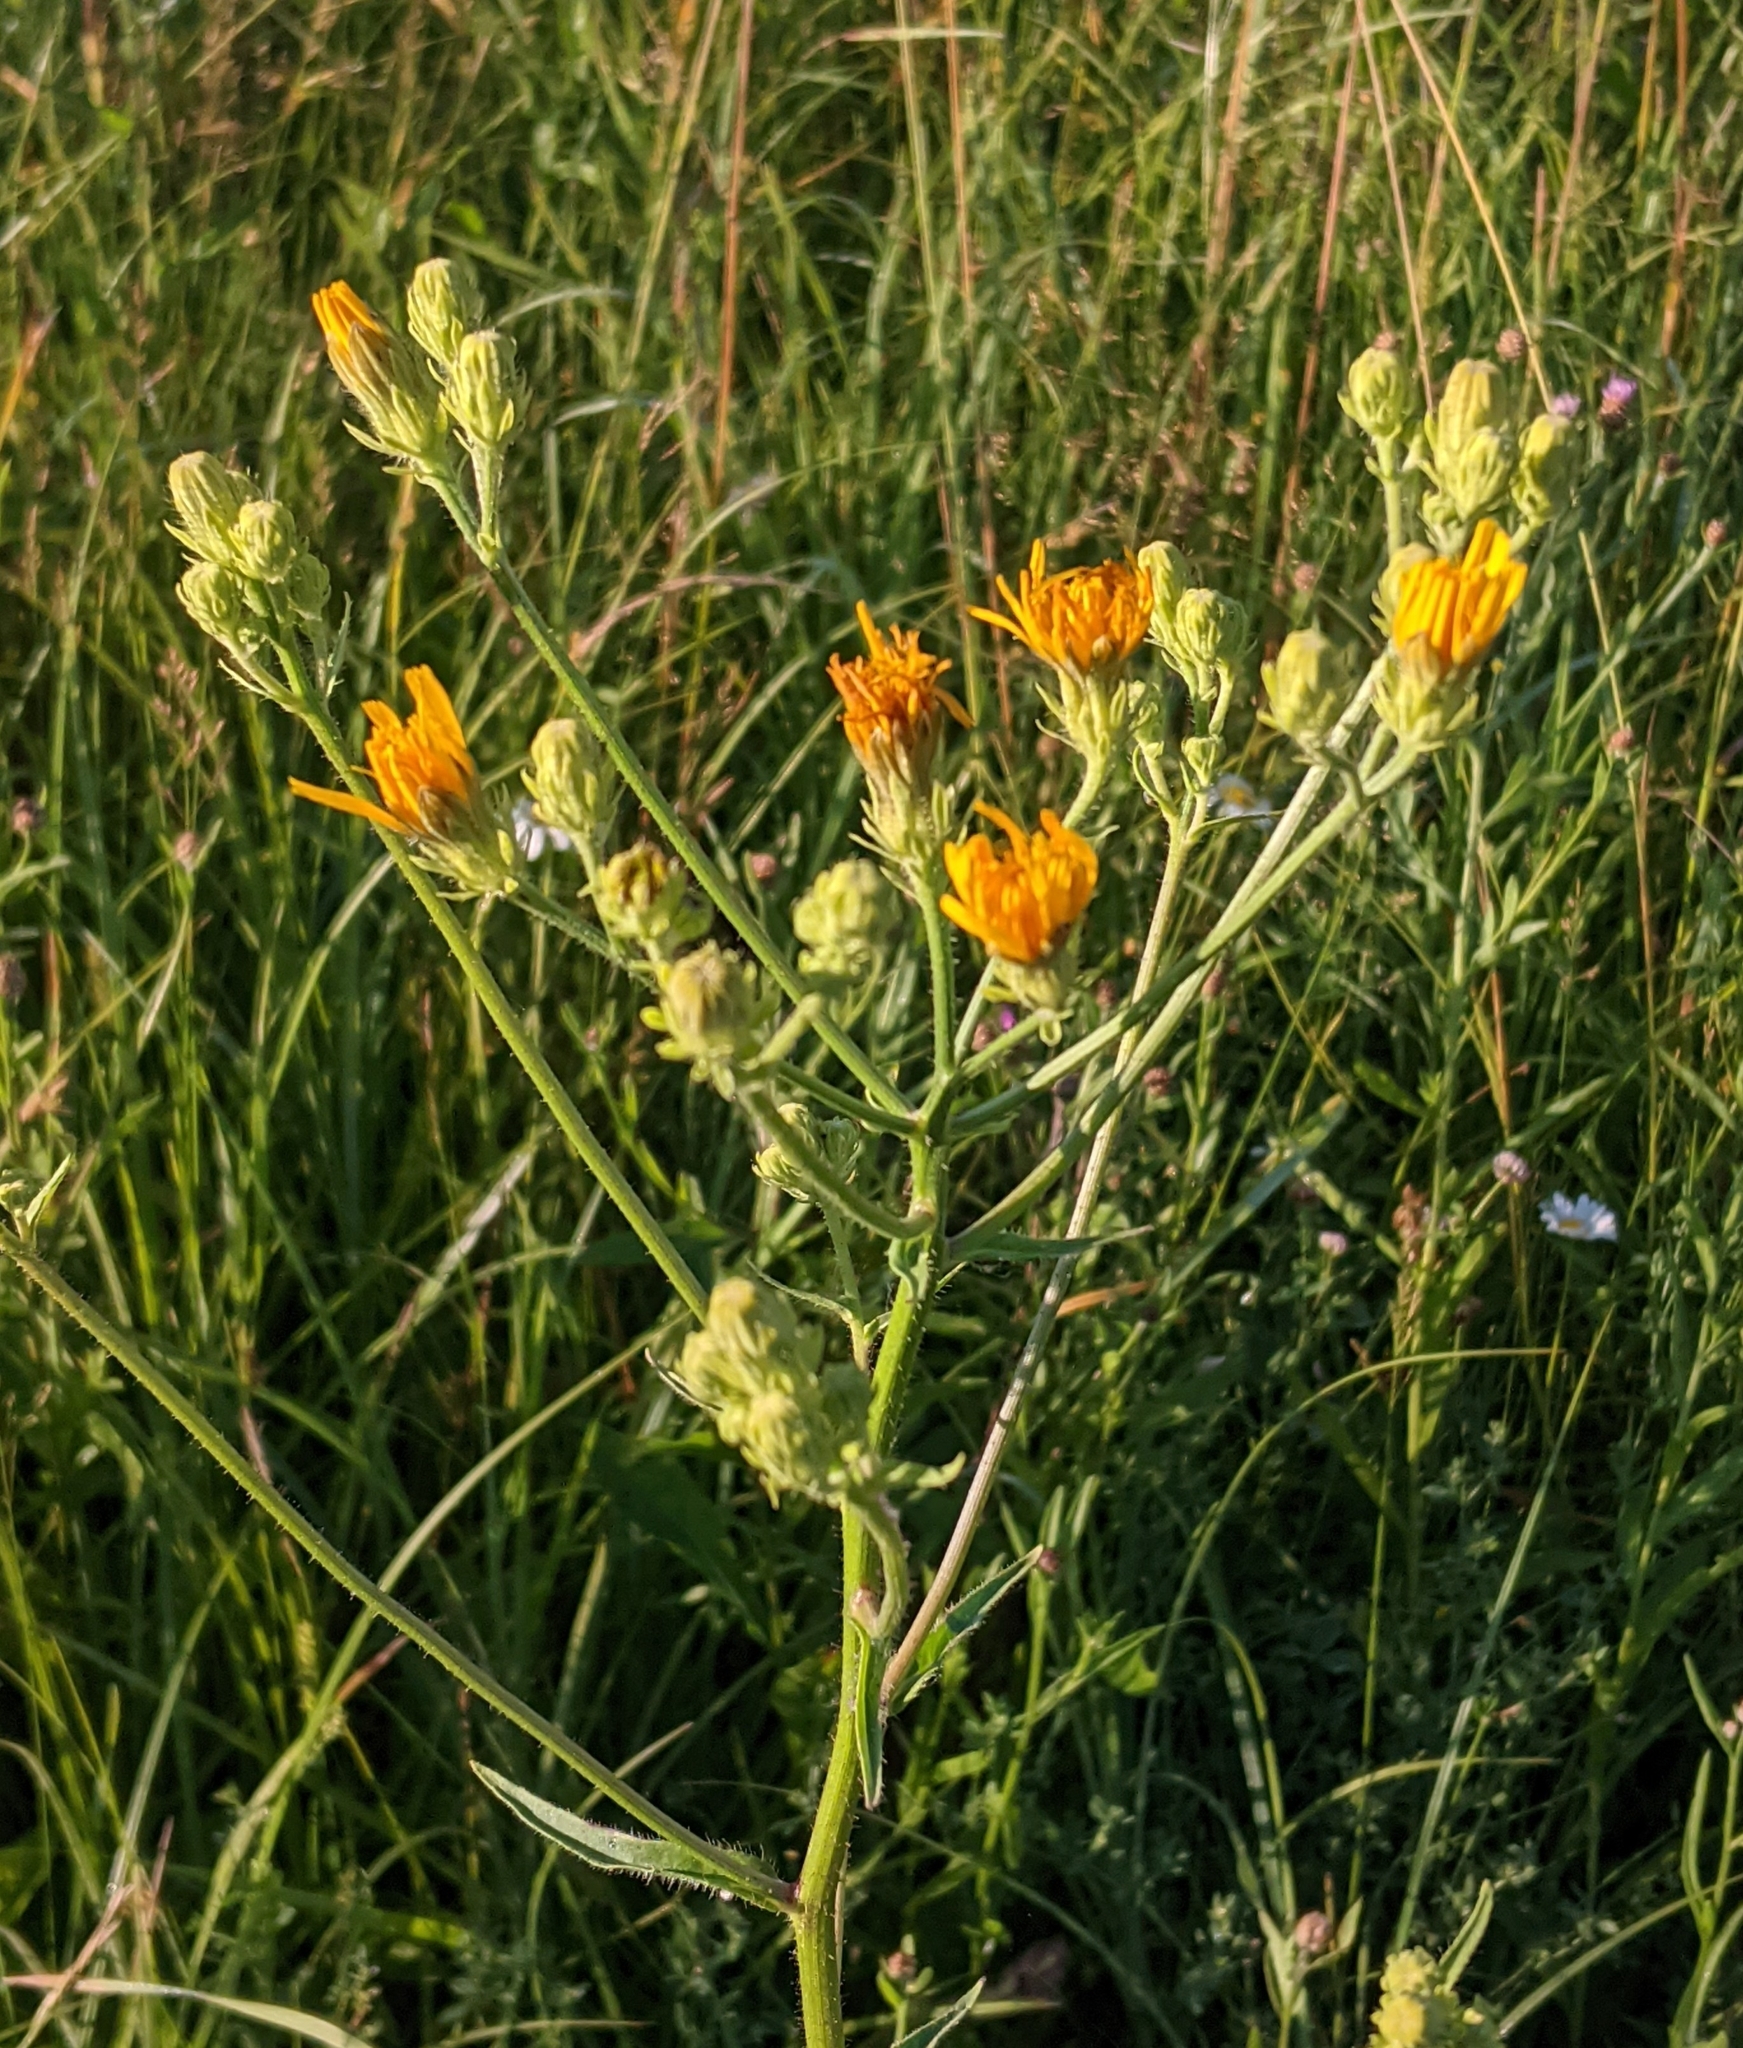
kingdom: Plantae
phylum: Tracheophyta
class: Magnoliopsida
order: Asterales
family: Asteraceae
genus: Picris
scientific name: Picris hieracioides
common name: Hawkweed oxtongue
